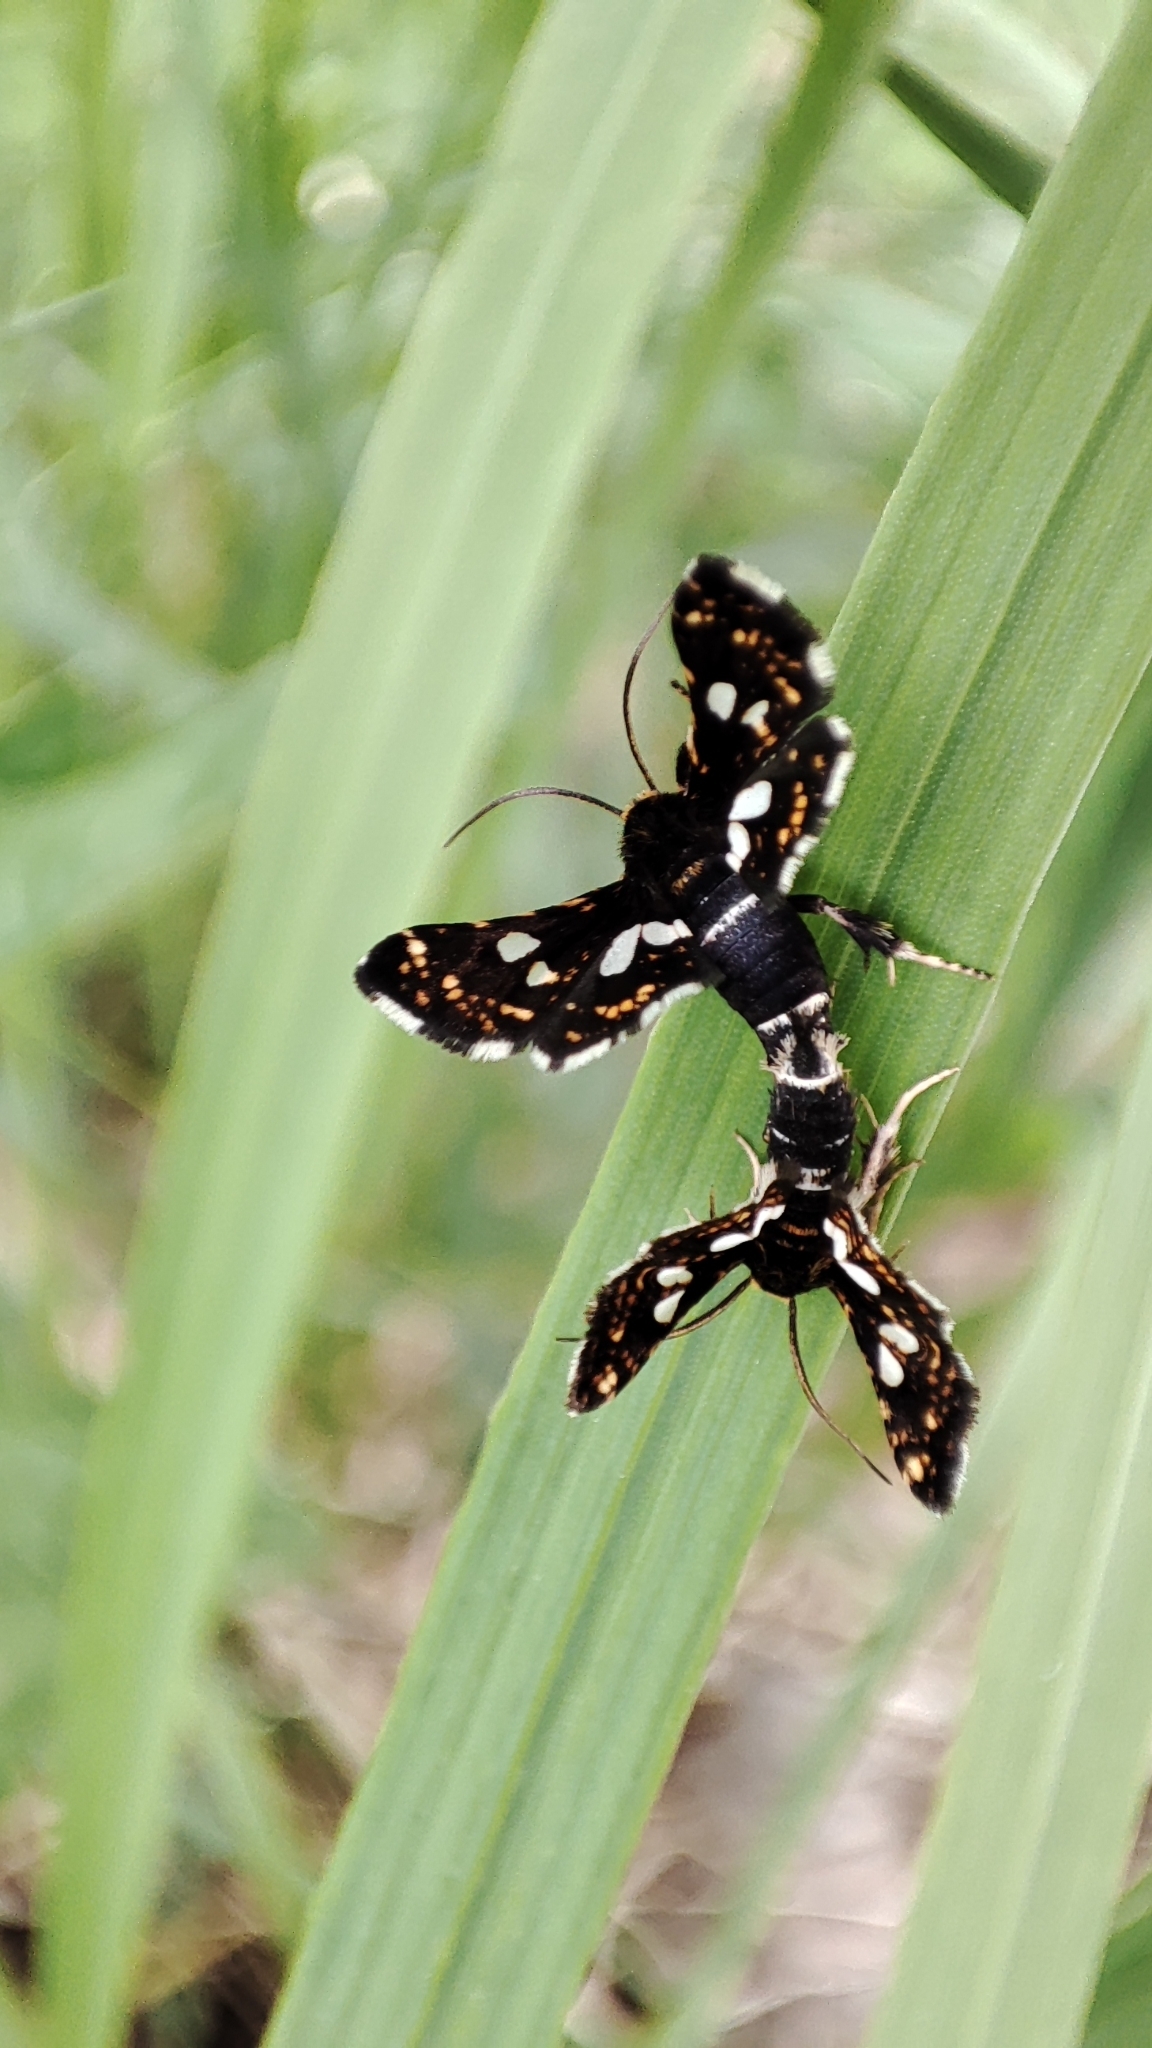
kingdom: Animalia
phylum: Arthropoda
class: Insecta
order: Lepidoptera
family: Thyrididae
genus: Thyris
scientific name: Thyris fenestrella
